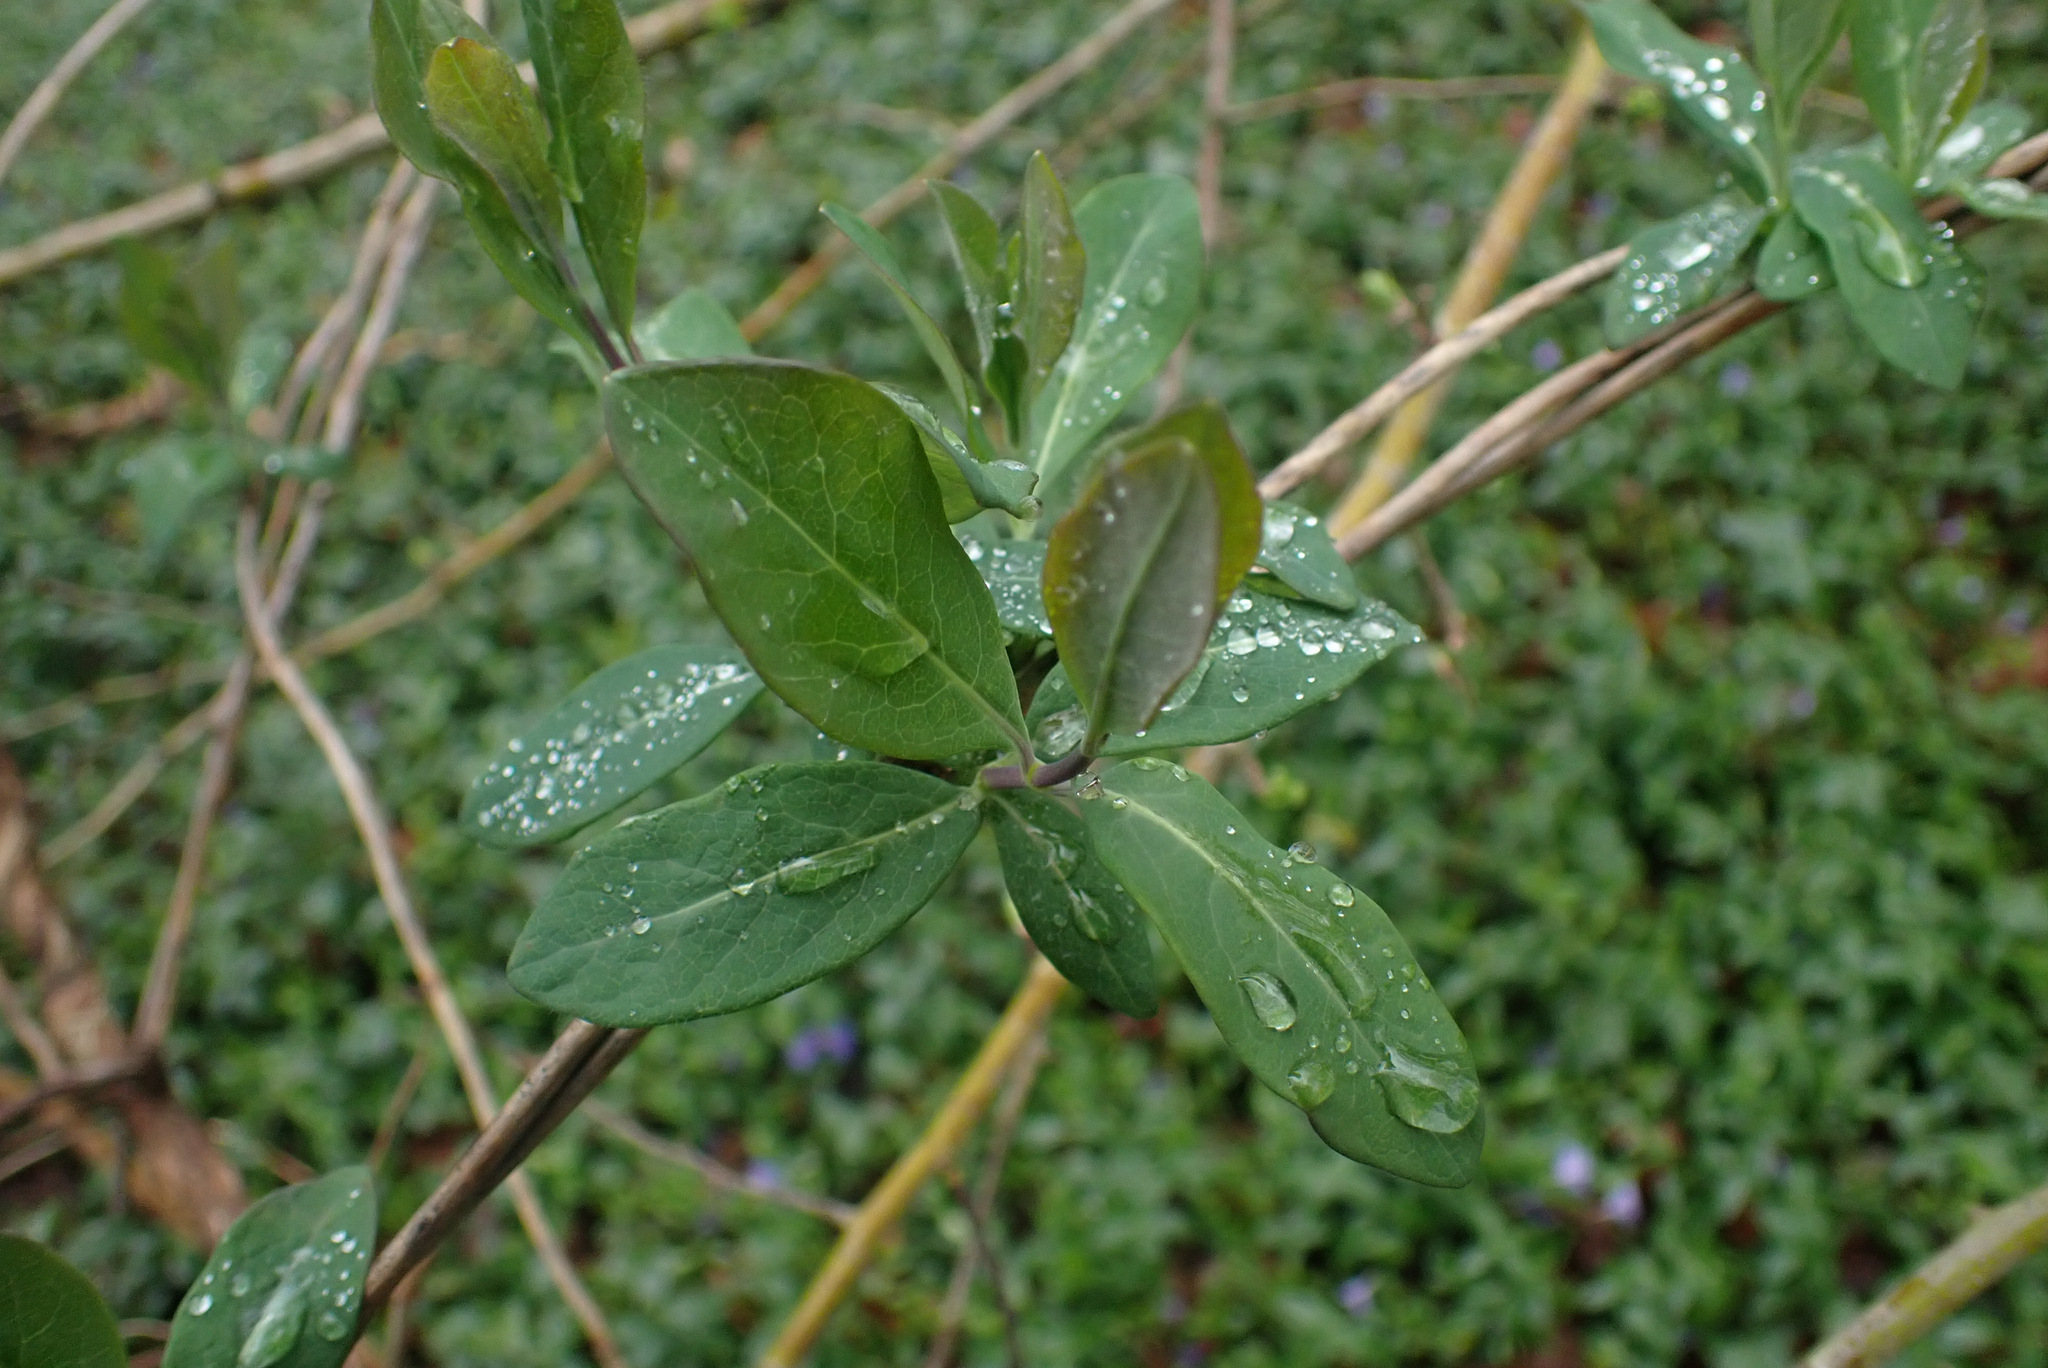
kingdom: Plantae
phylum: Tracheophyta
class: Magnoliopsida
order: Dipsacales
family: Caprifoliaceae
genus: Lonicera
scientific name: Lonicera periclymenum
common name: European honeysuckle
